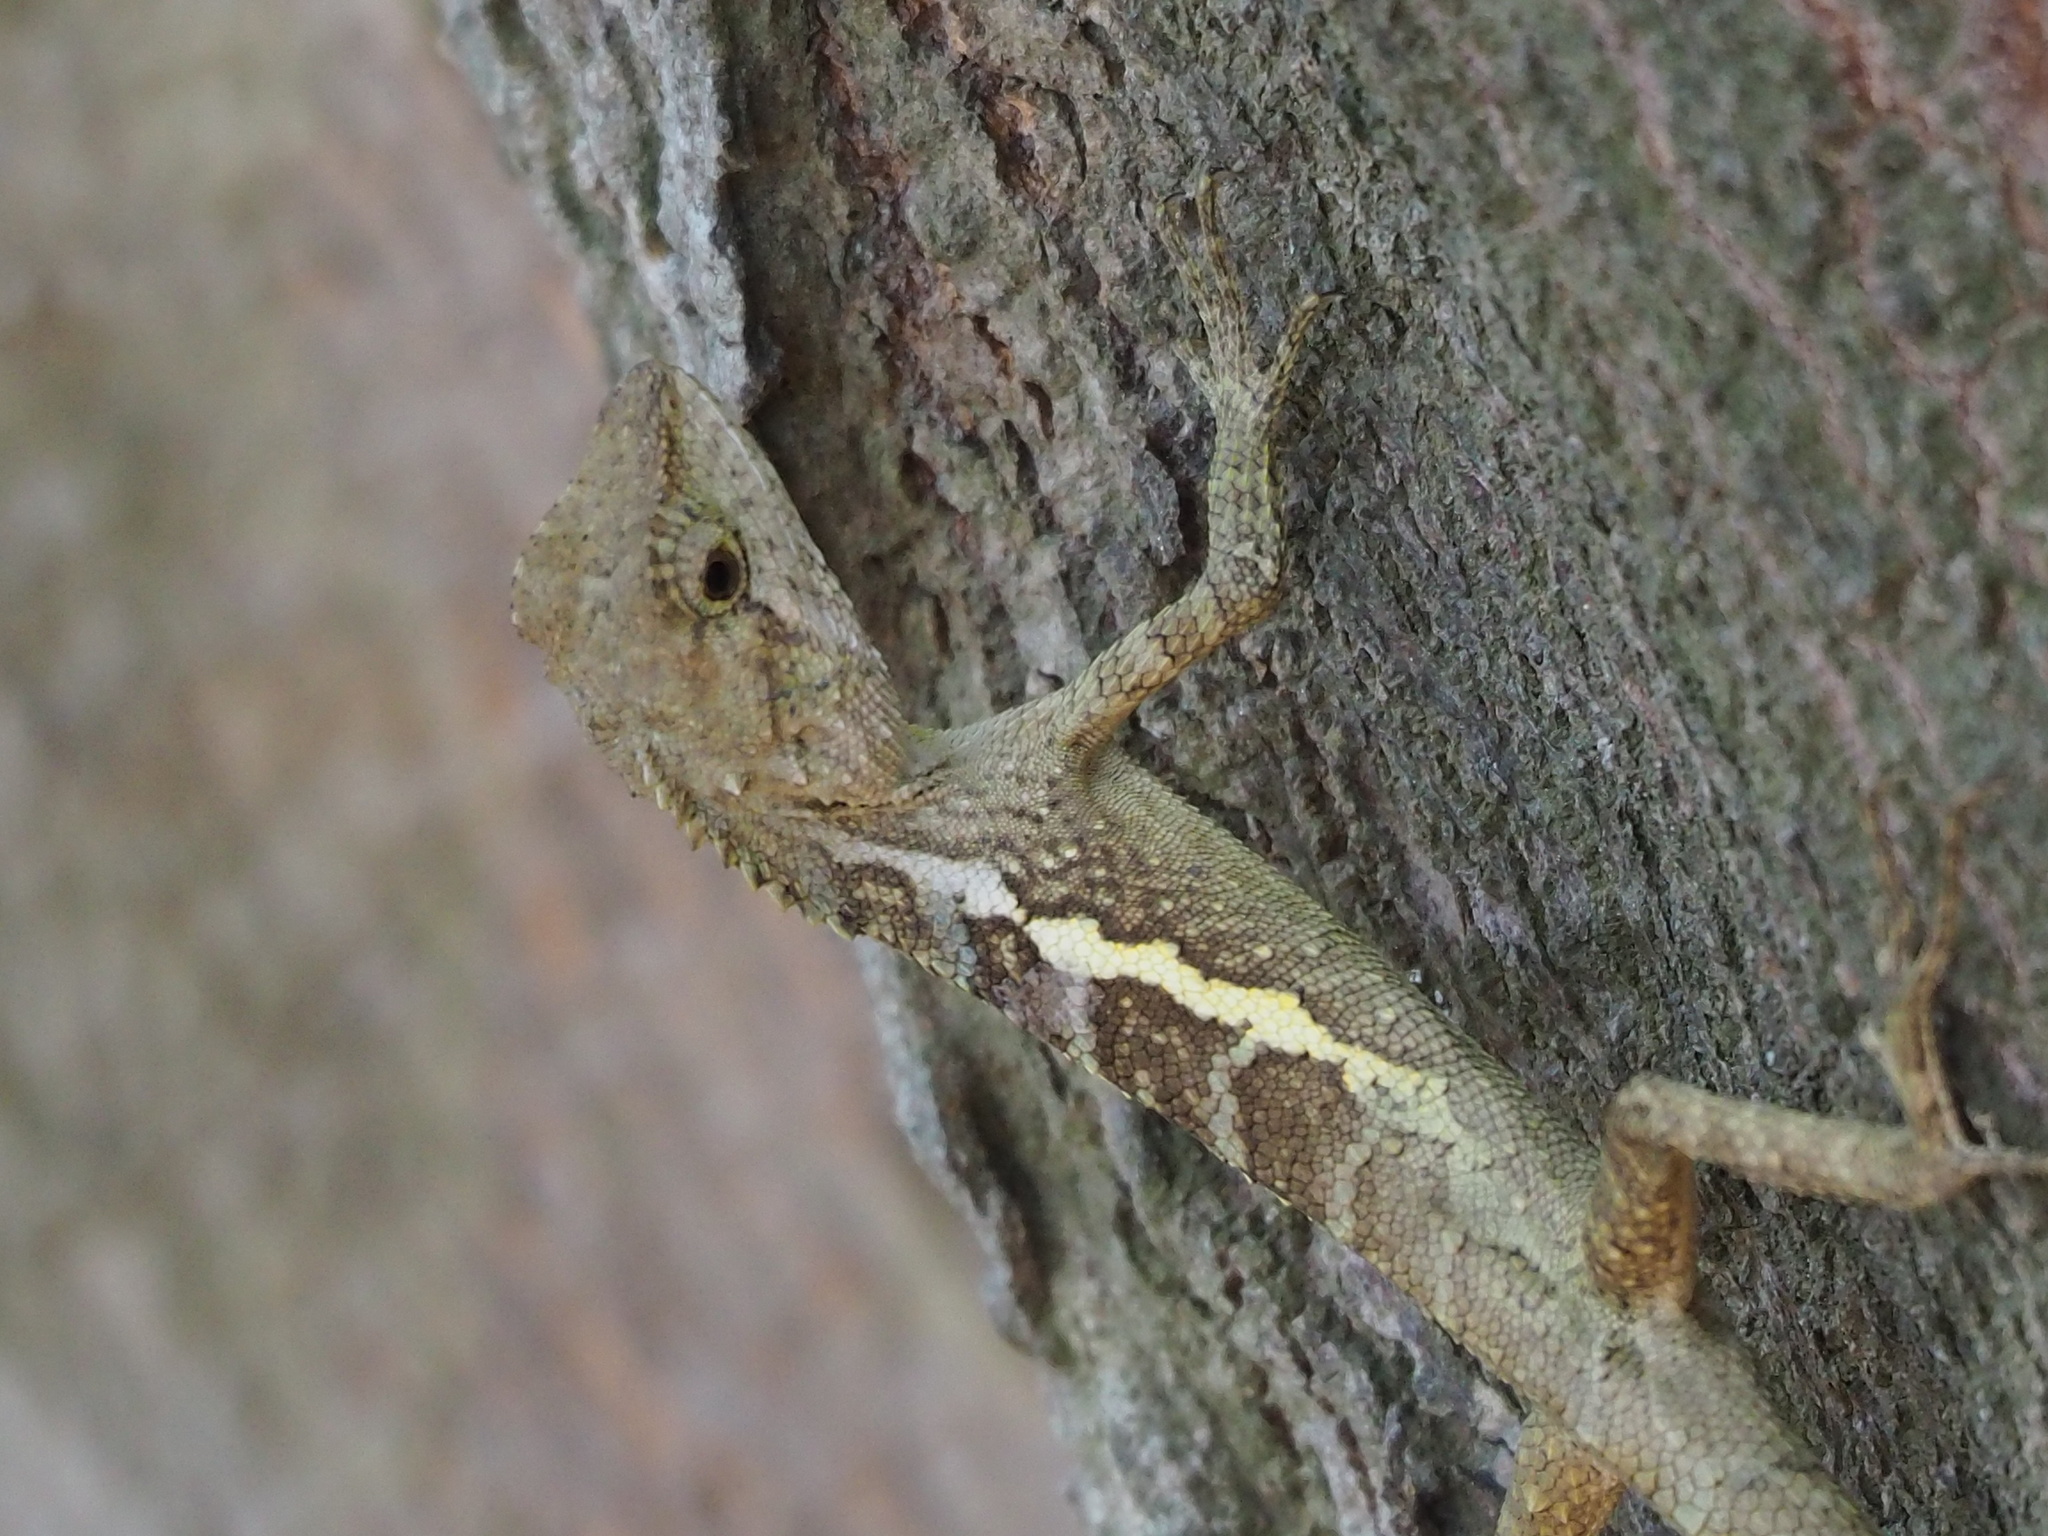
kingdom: Animalia
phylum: Chordata
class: Squamata
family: Agamidae
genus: Diploderma
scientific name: Diploderma swinhonis
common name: Taiwan japalure
